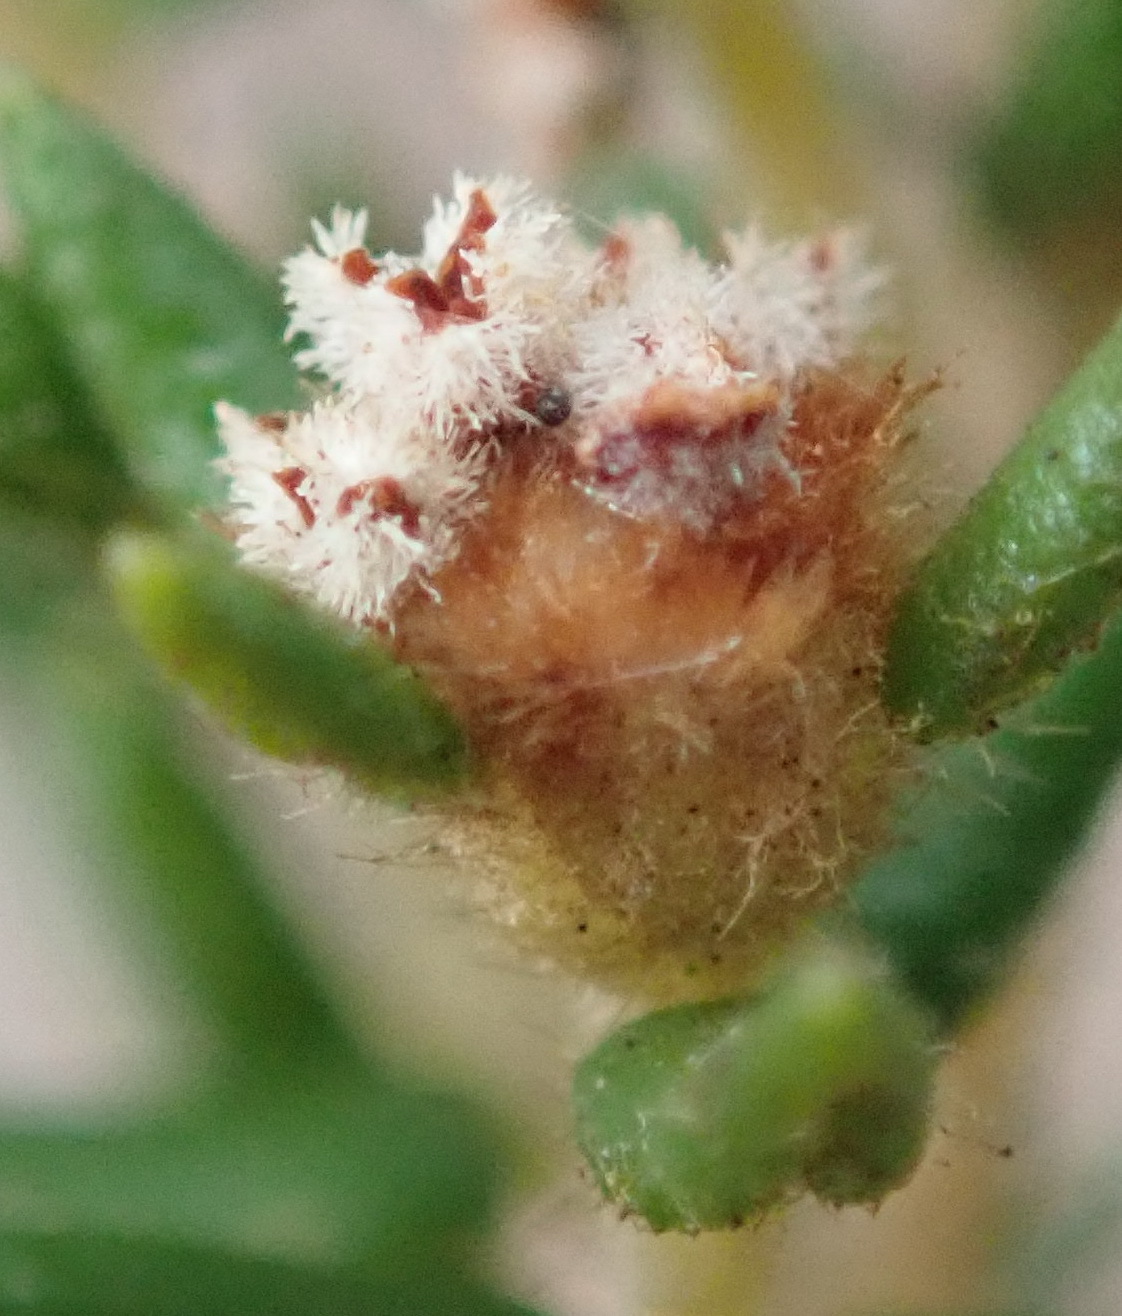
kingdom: Plantae
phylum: Tracheophyta
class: Magnoliopsida
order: Rosales
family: Rhamnaceae
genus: Phylica
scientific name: Phylica parviflora
